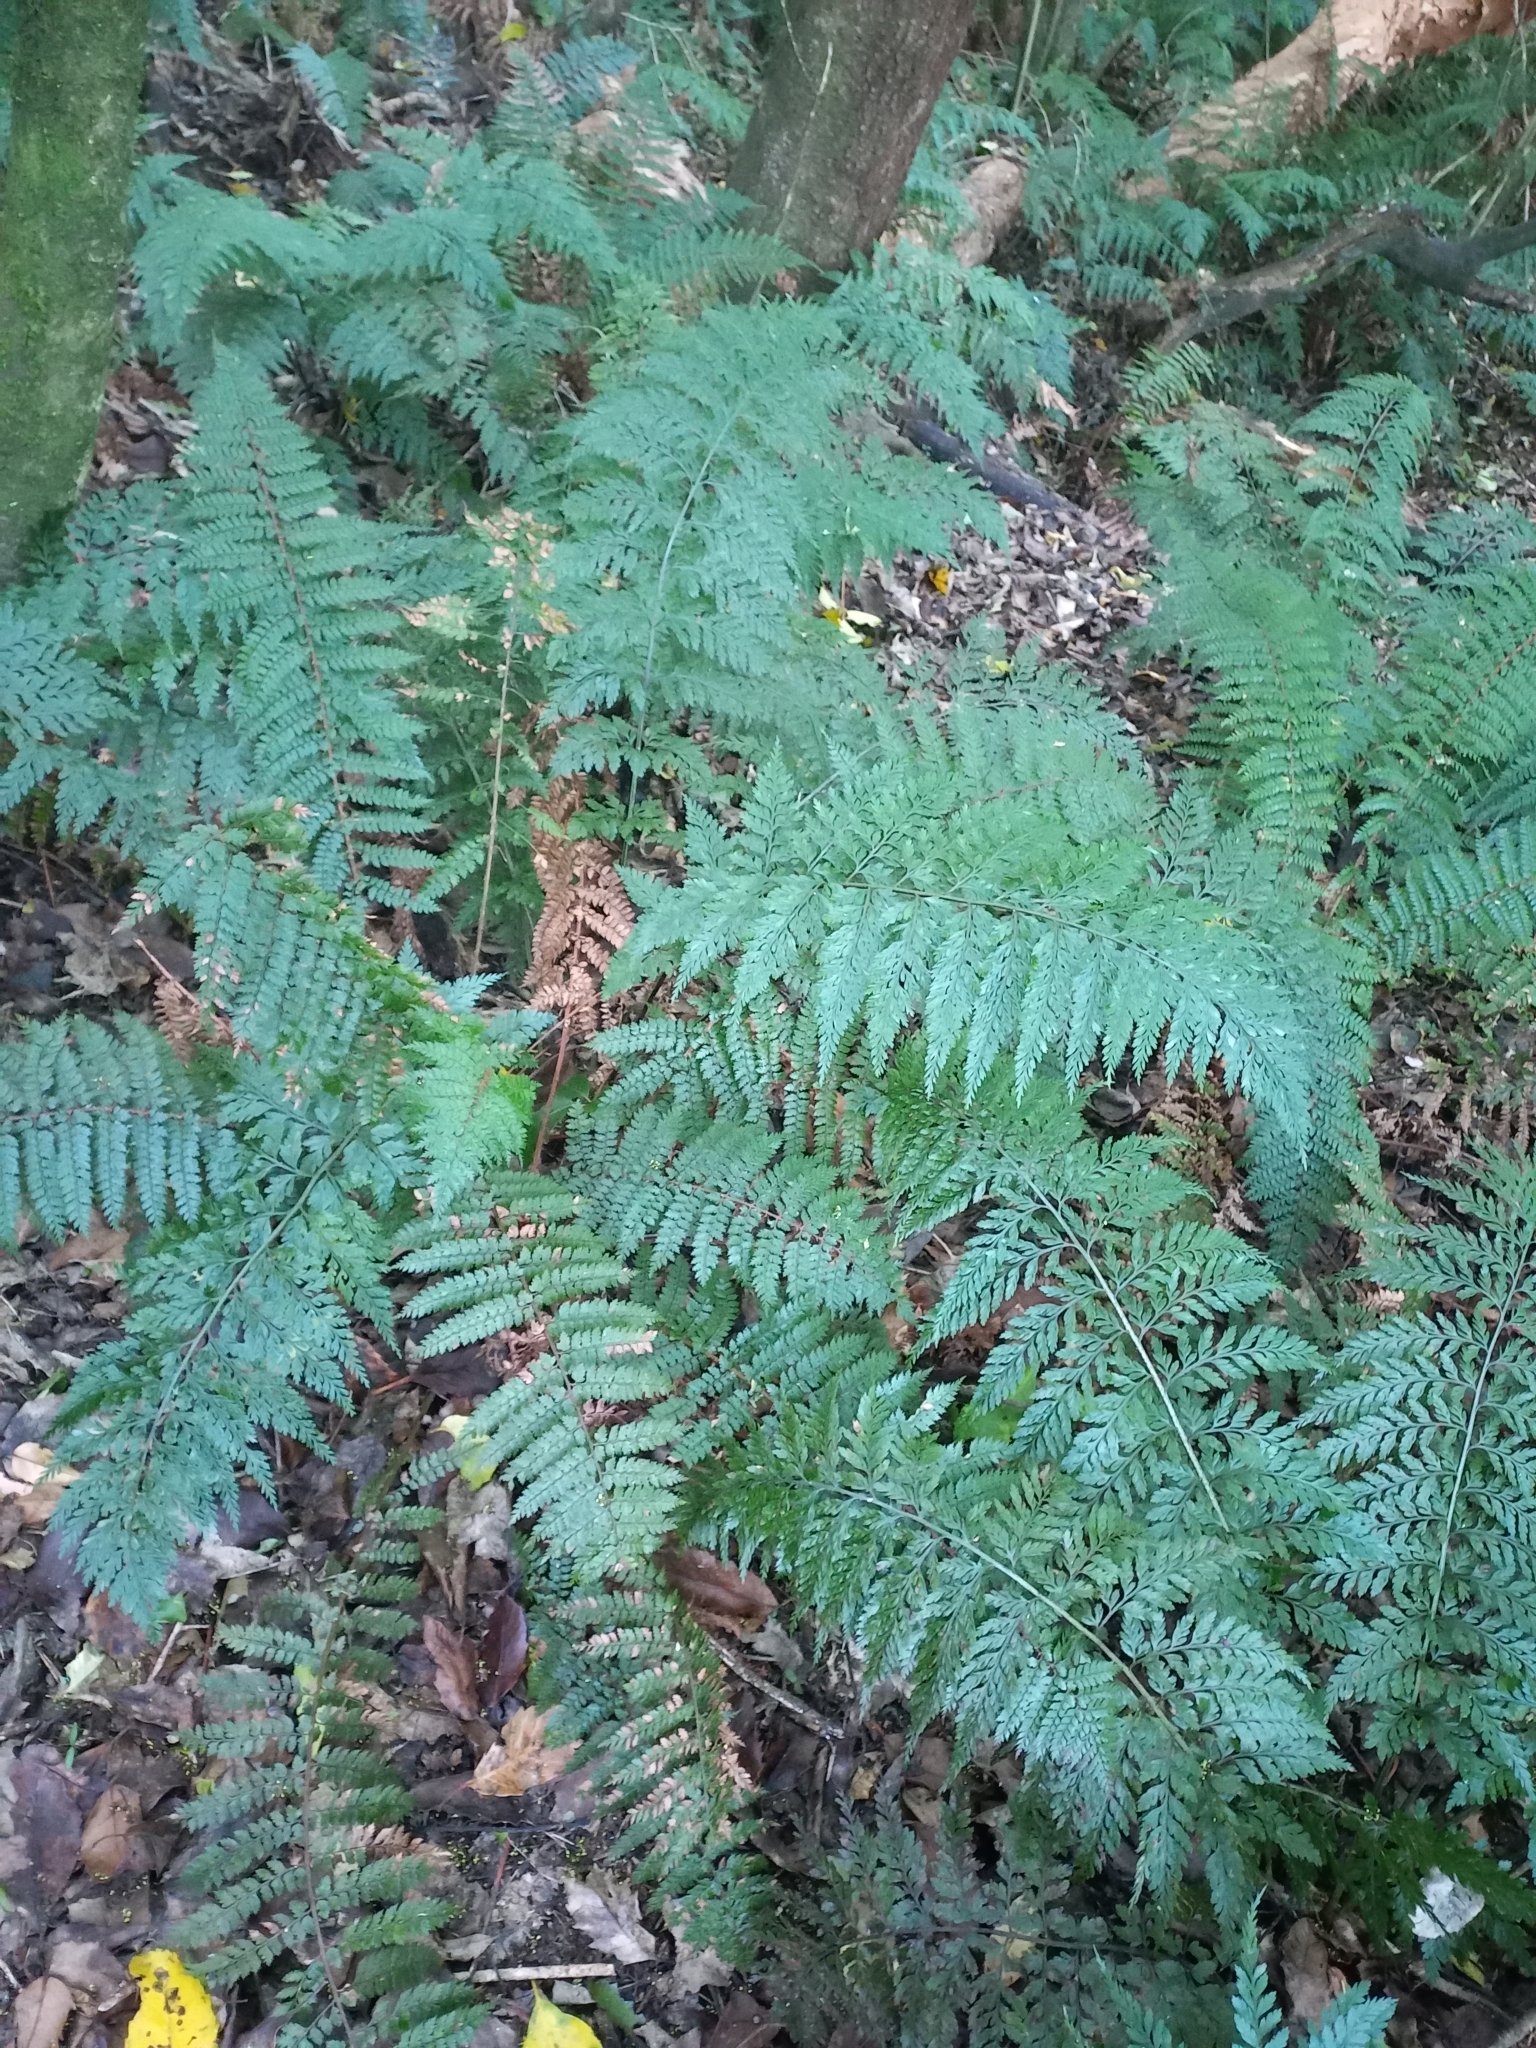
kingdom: Plantae
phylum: Tracheophyta
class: Polypodiopsida
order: Polypodiales
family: Aspleniaceae
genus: Asplenium
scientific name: Asplenium
